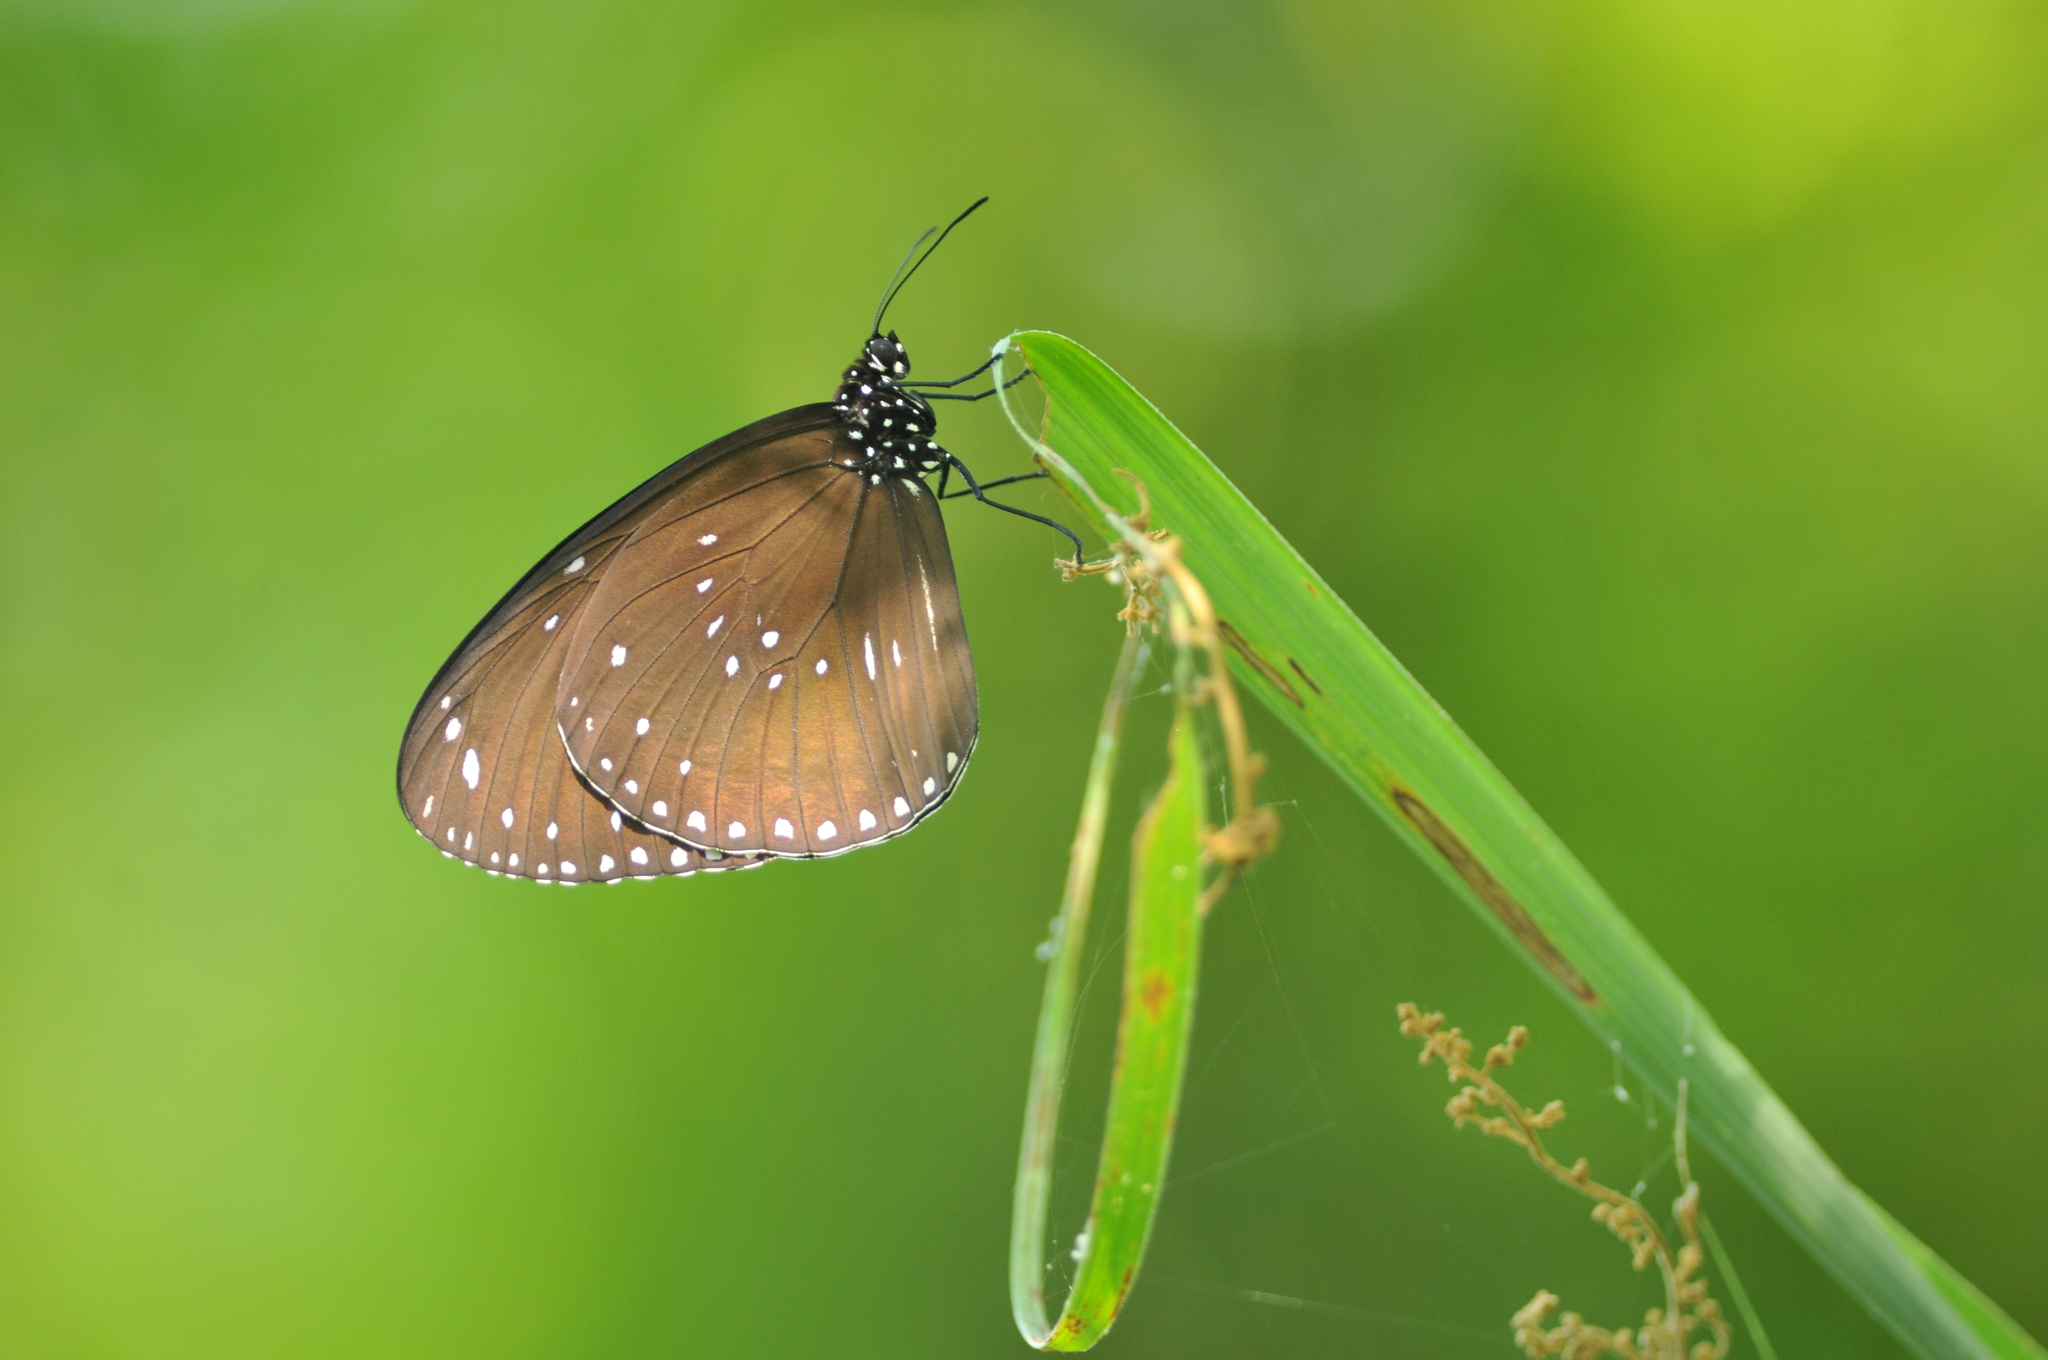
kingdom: Animalia
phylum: Arthropoda
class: Insecta
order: Lepidoptera
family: Nymphalidae
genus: Euploea
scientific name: Euploea sylvester
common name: Double-branded crow butterfly
